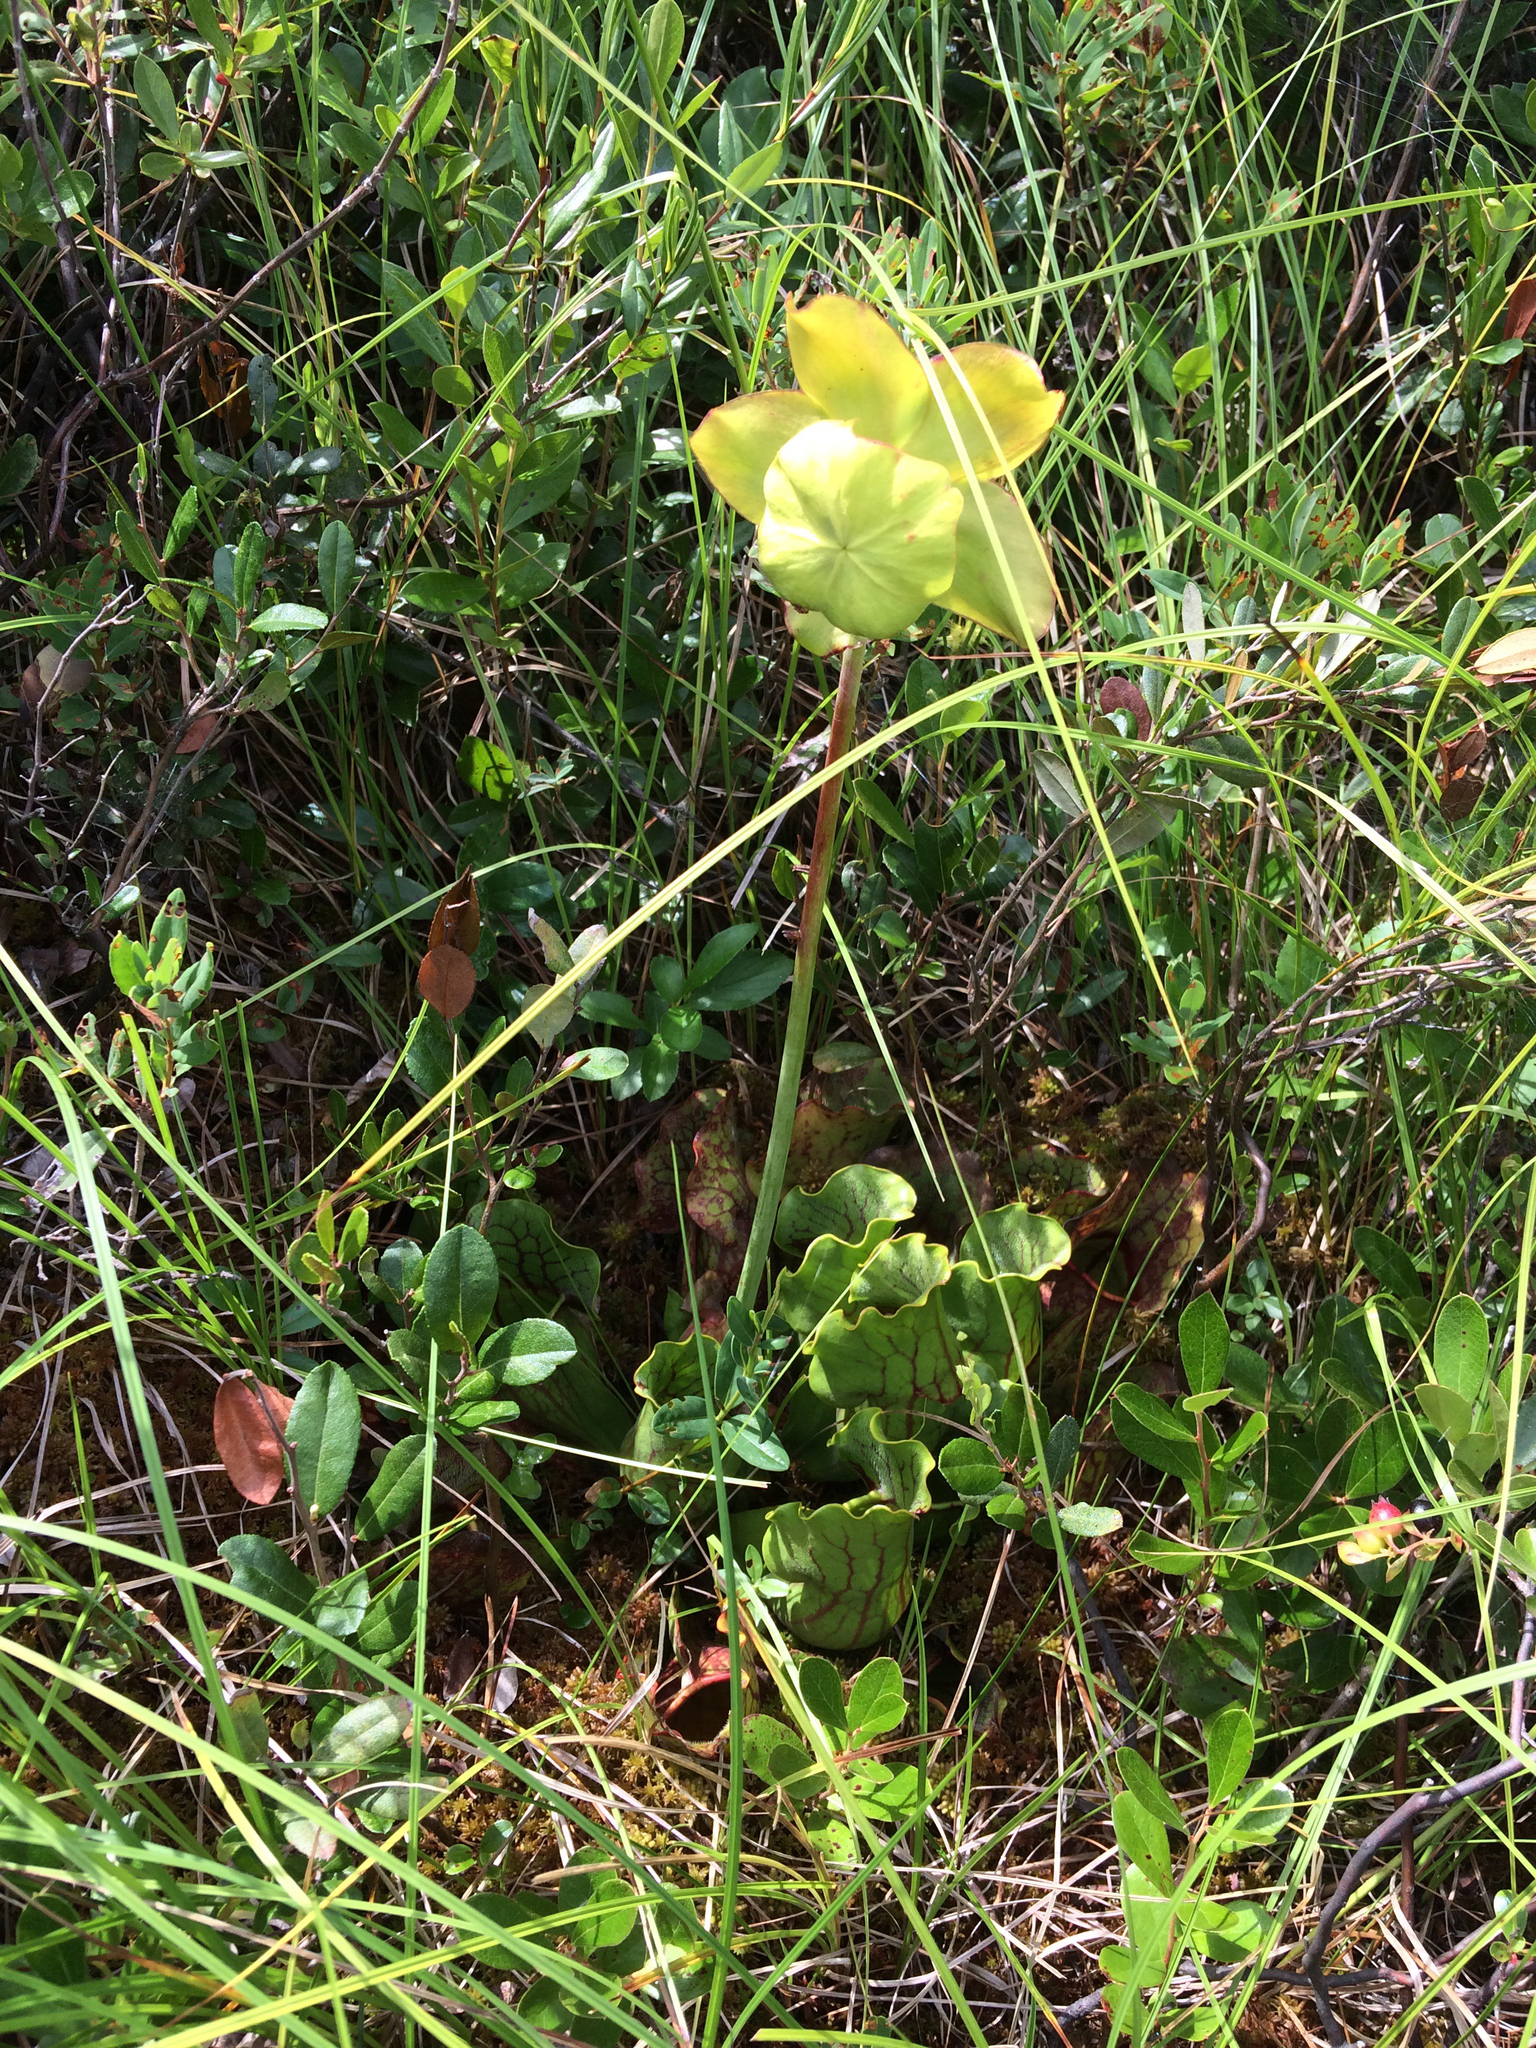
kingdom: Plantae
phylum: Tracheophyta
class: Magnoliopsida
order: Ericales
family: Sarraceniaceae
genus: Sarracenia
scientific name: Sarracenia purpurea
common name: Pitcherplant
